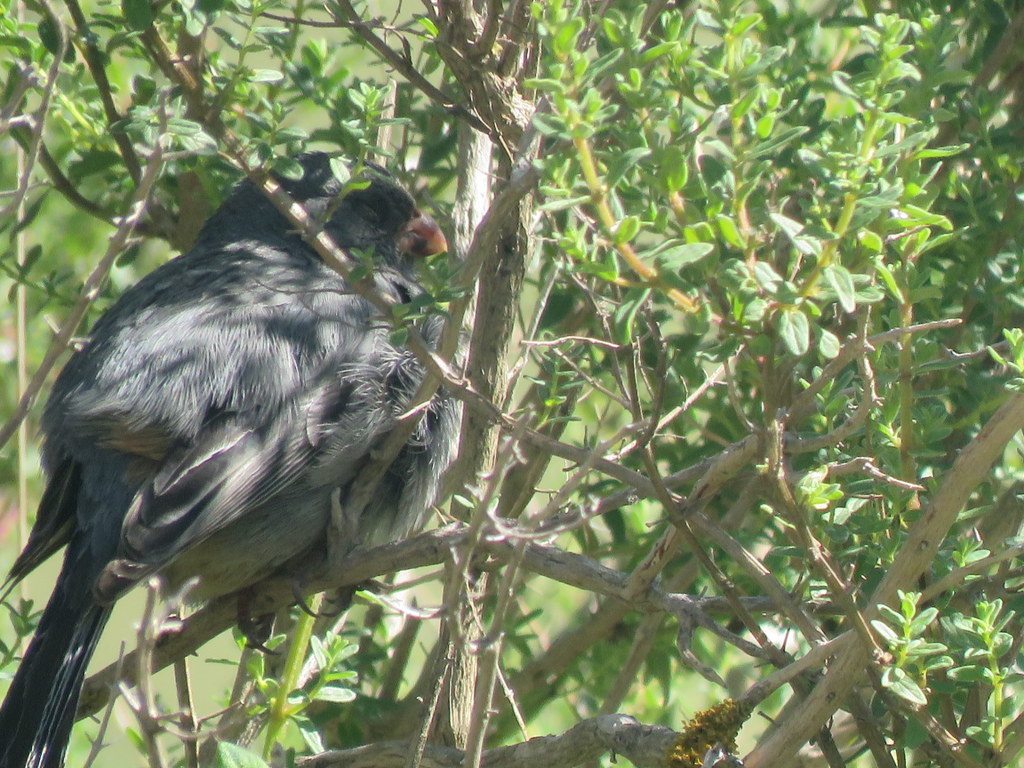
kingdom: Animalia
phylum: Chordata
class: Aves
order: Passeriformes
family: Thraupidae
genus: Catamenia
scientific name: Catamenia inornata
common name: Plain-colored seedeater
